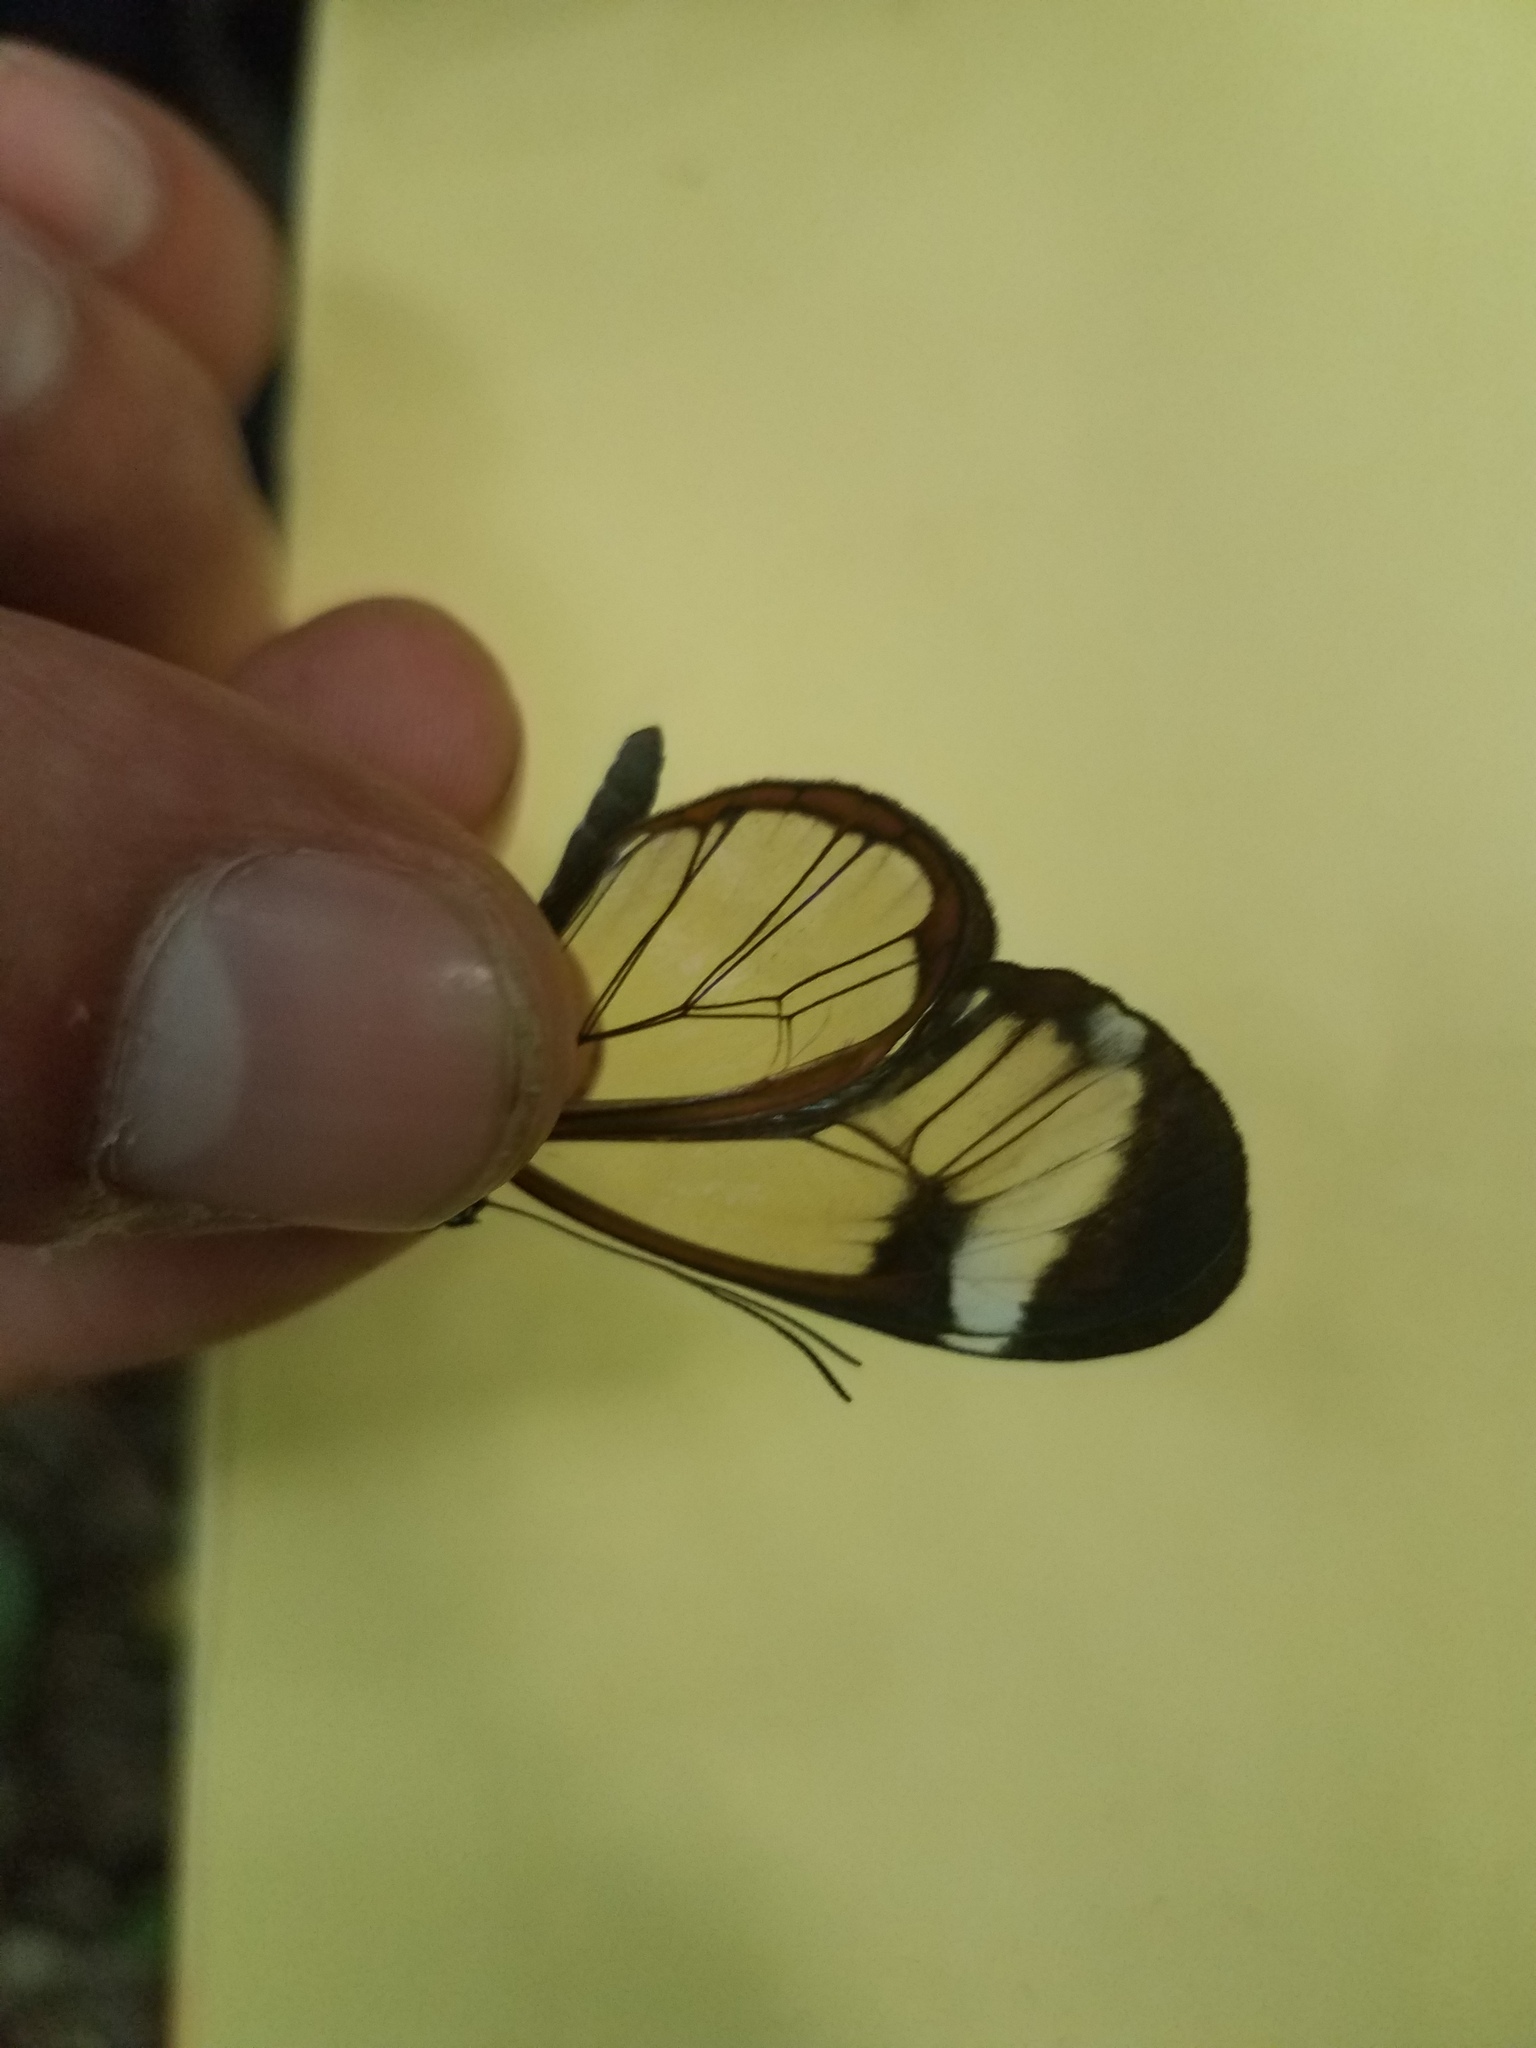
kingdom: Animalia
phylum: Arthropoda
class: Insecta
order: Lepidoptera
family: Nymphalidae
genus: Greta
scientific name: Greta morgane
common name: Thick-tipped greta
